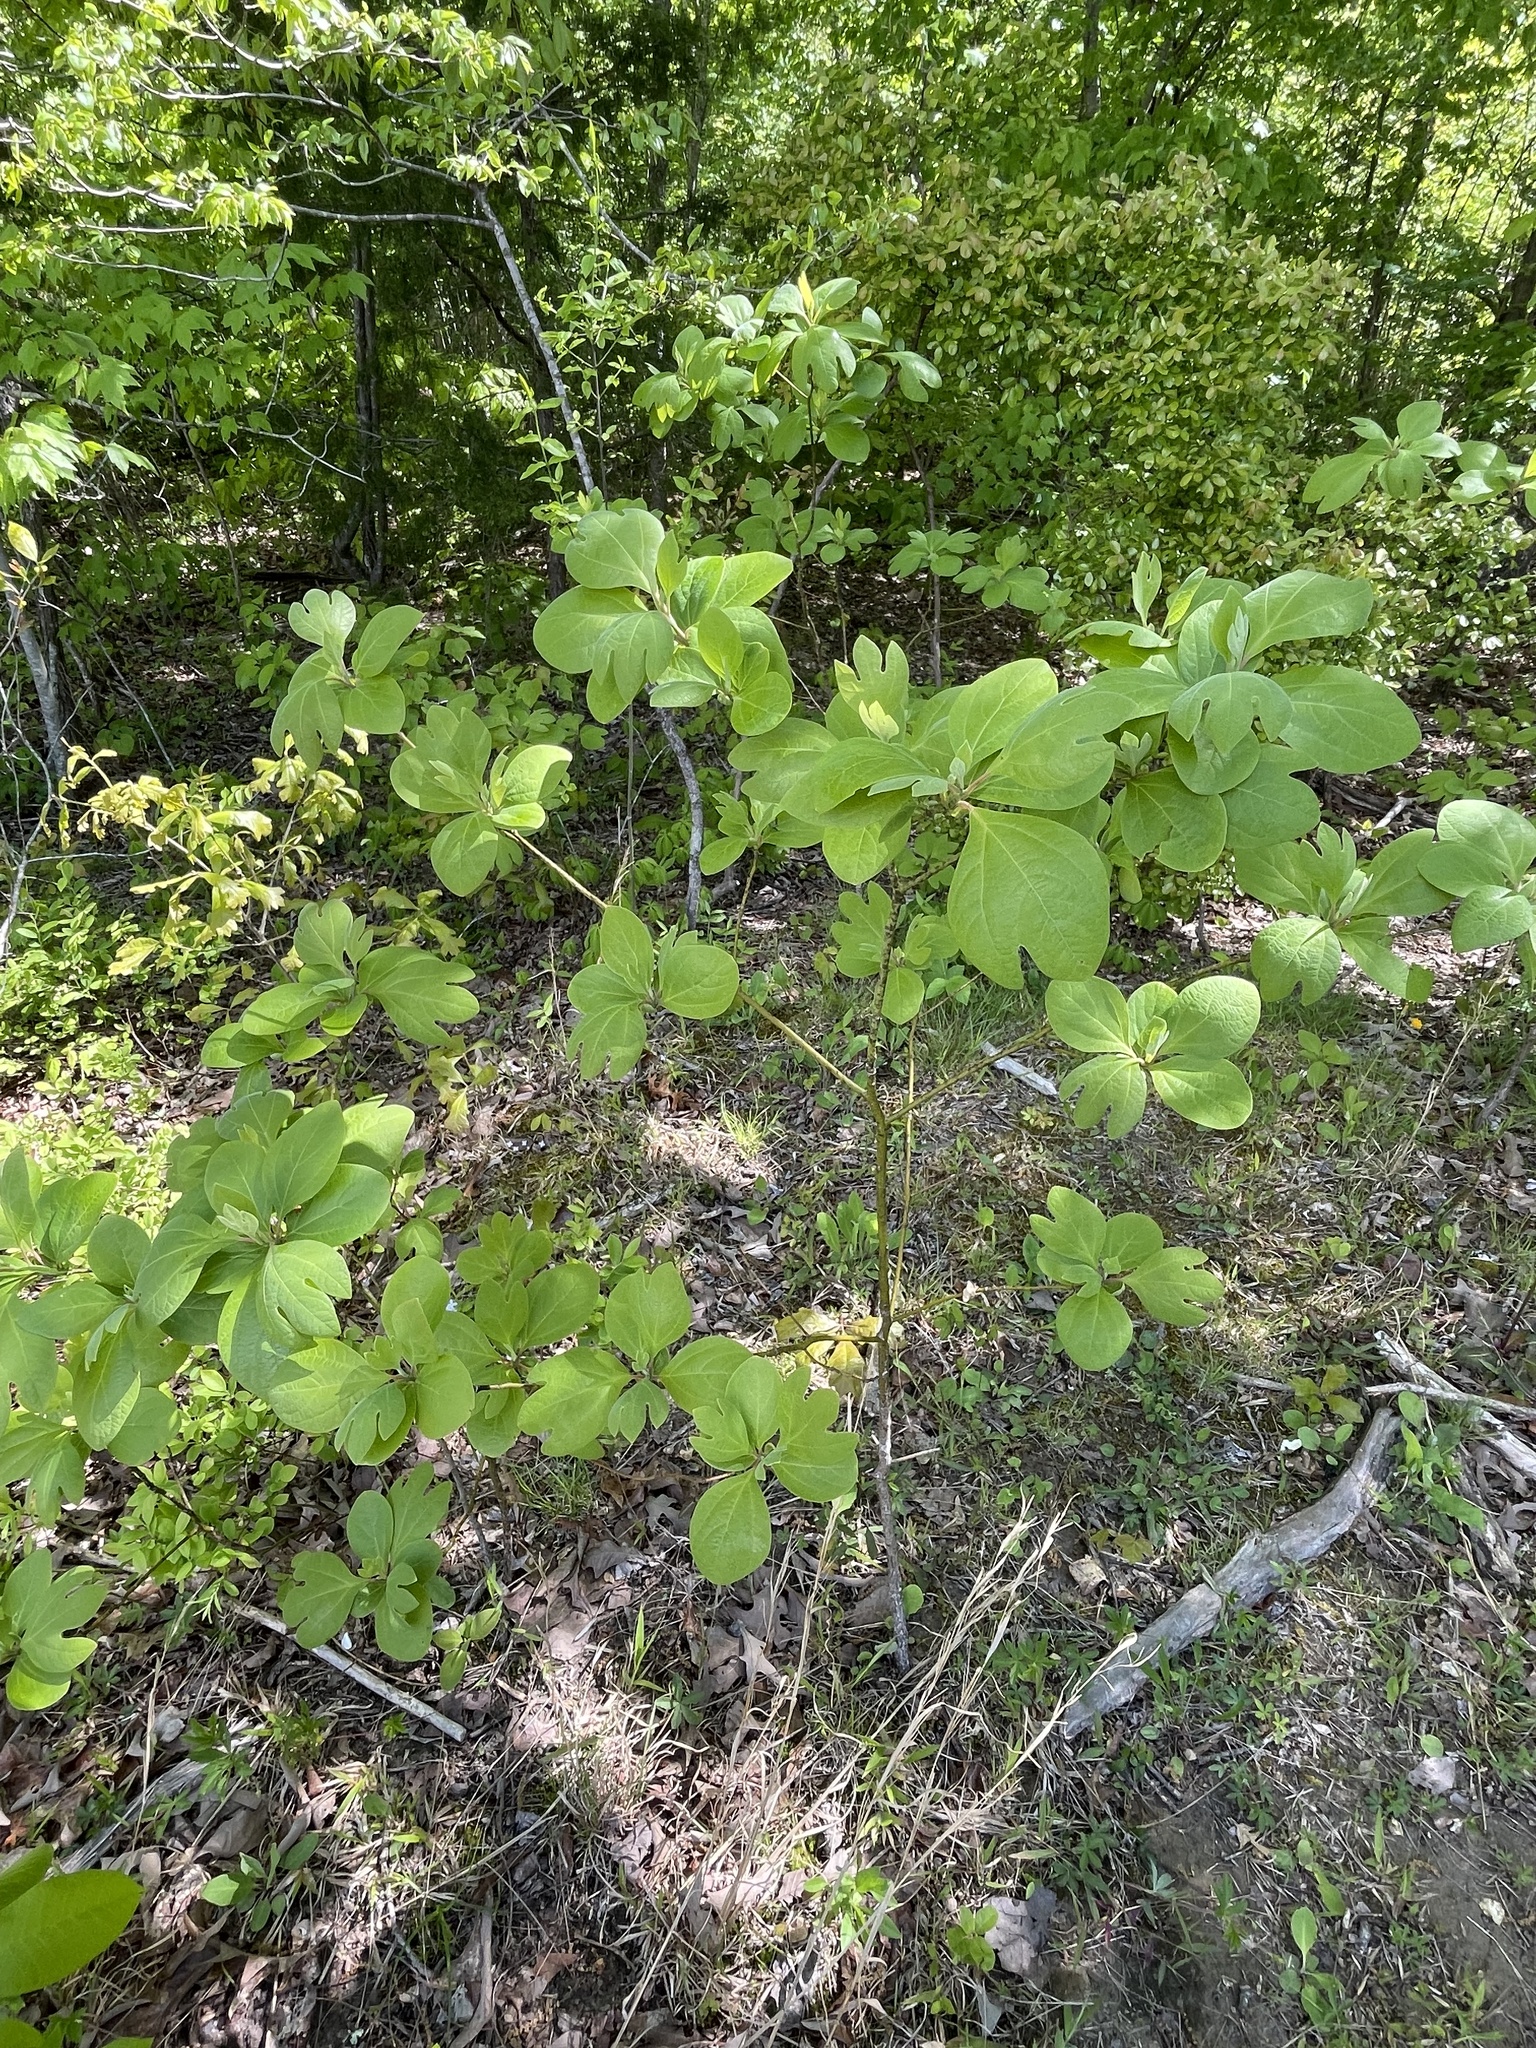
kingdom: Plantae
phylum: Tracheophyta
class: Magnoliopsida
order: Laurales
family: Lauraceae
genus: Sassafras
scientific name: Sassafras albidum
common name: Sassafras
